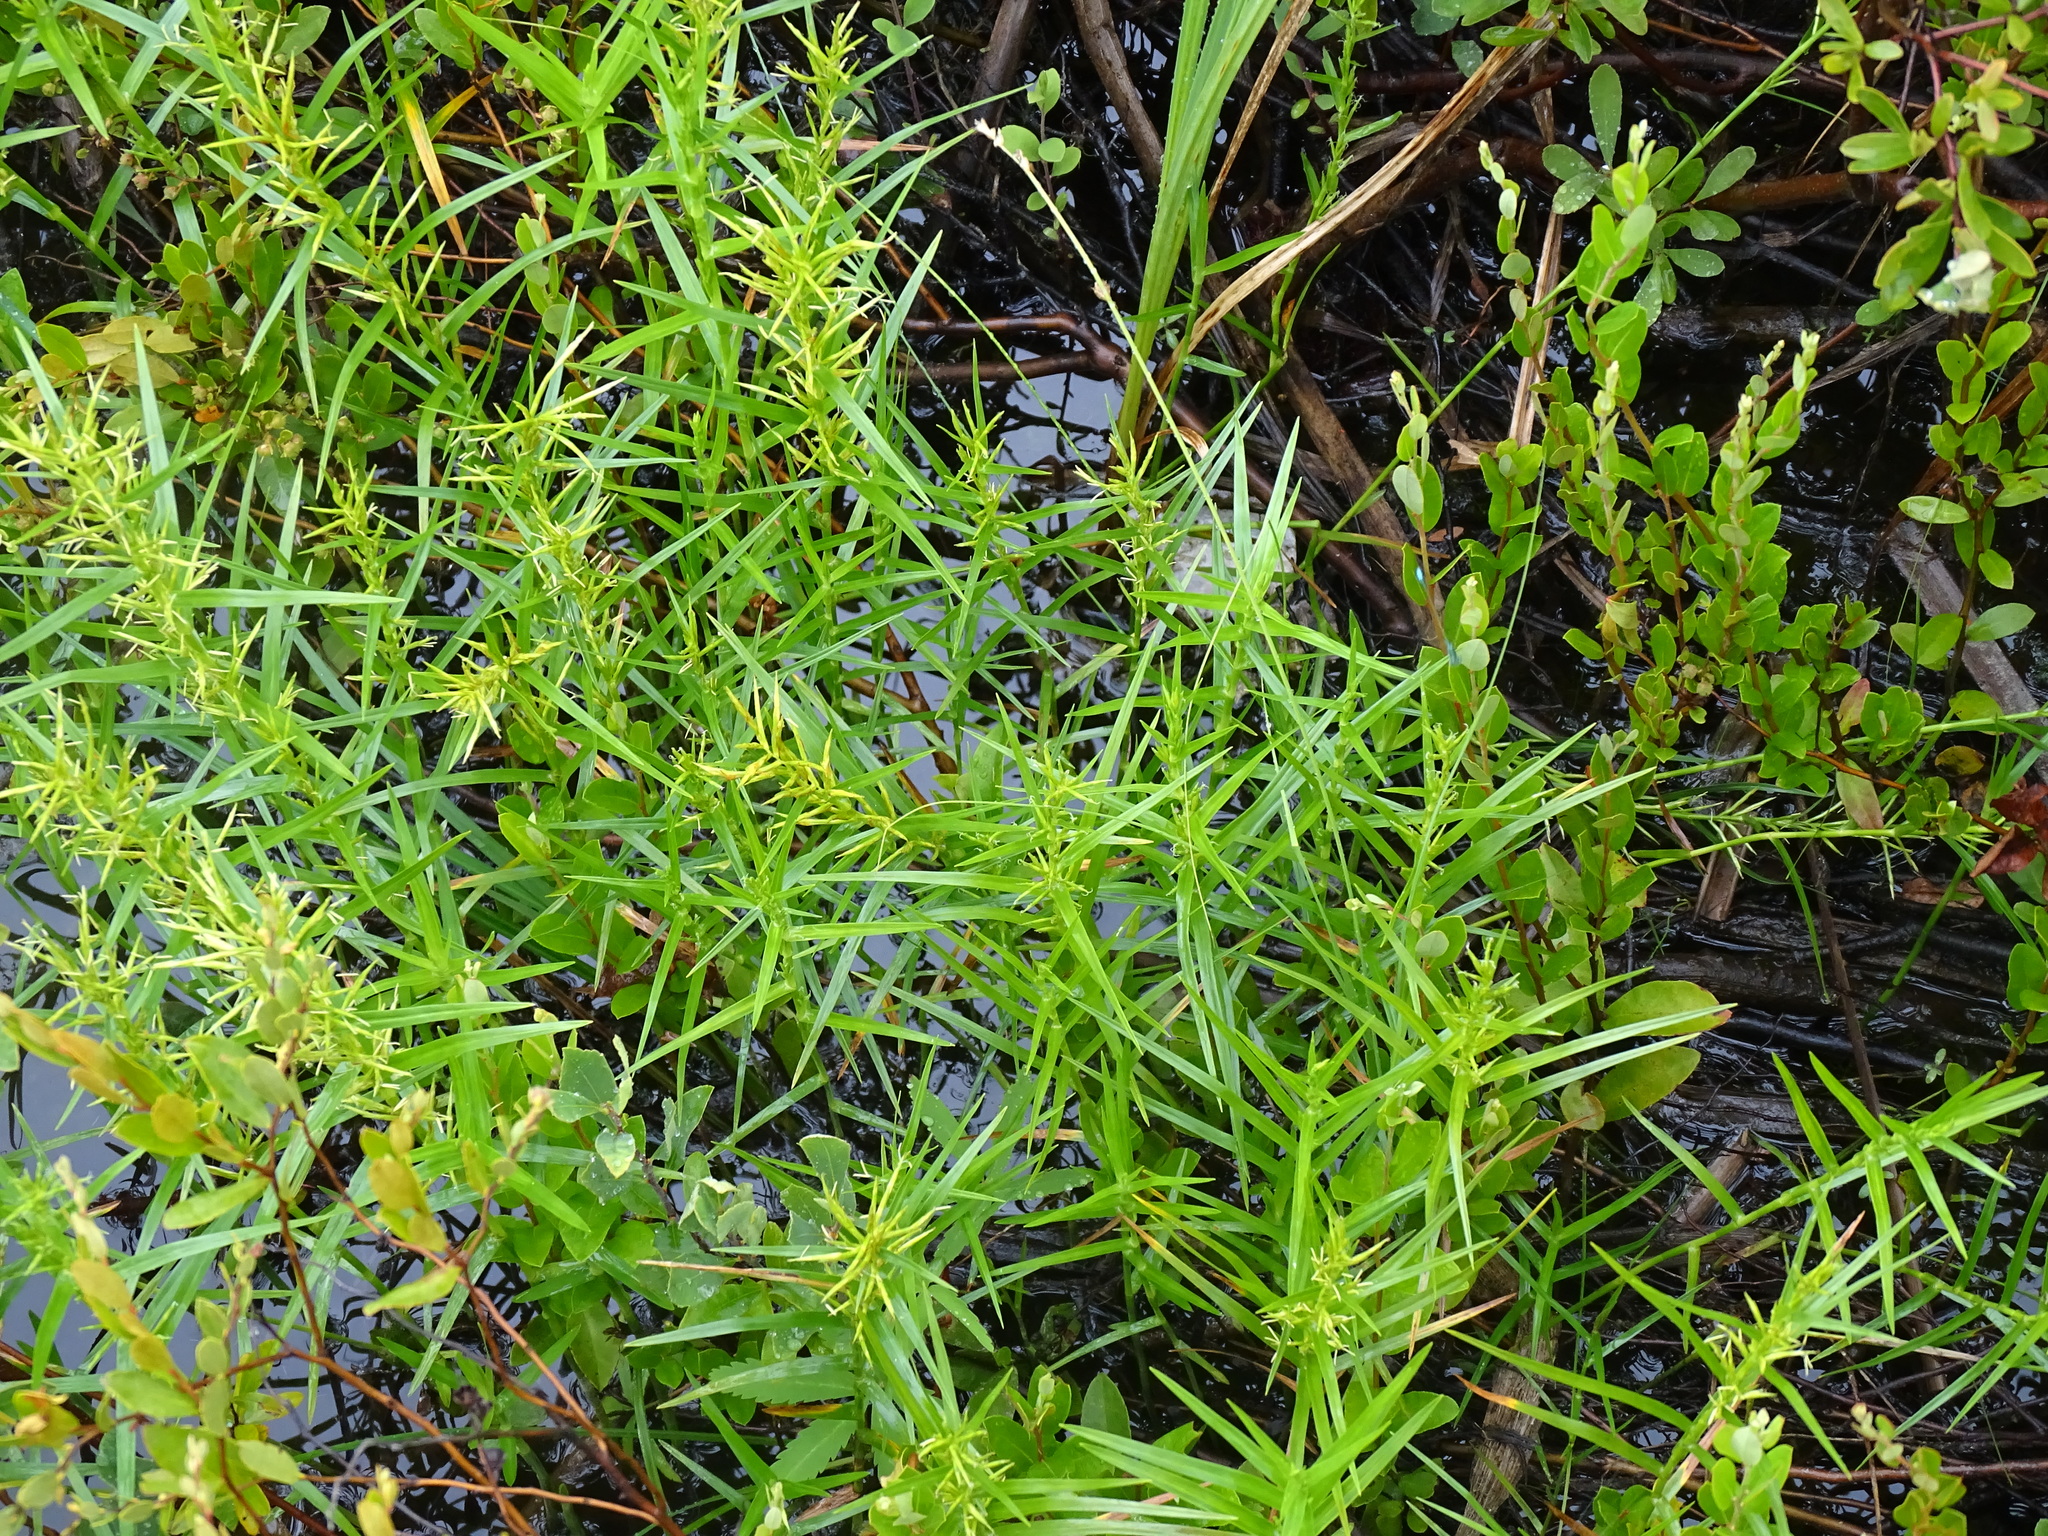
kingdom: Plantae
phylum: Tracheophyta
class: Liliopsida
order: Poales
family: Cyperaceae
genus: Dulichium
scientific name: Dulichium arundinaceum
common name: Three-way sedge
